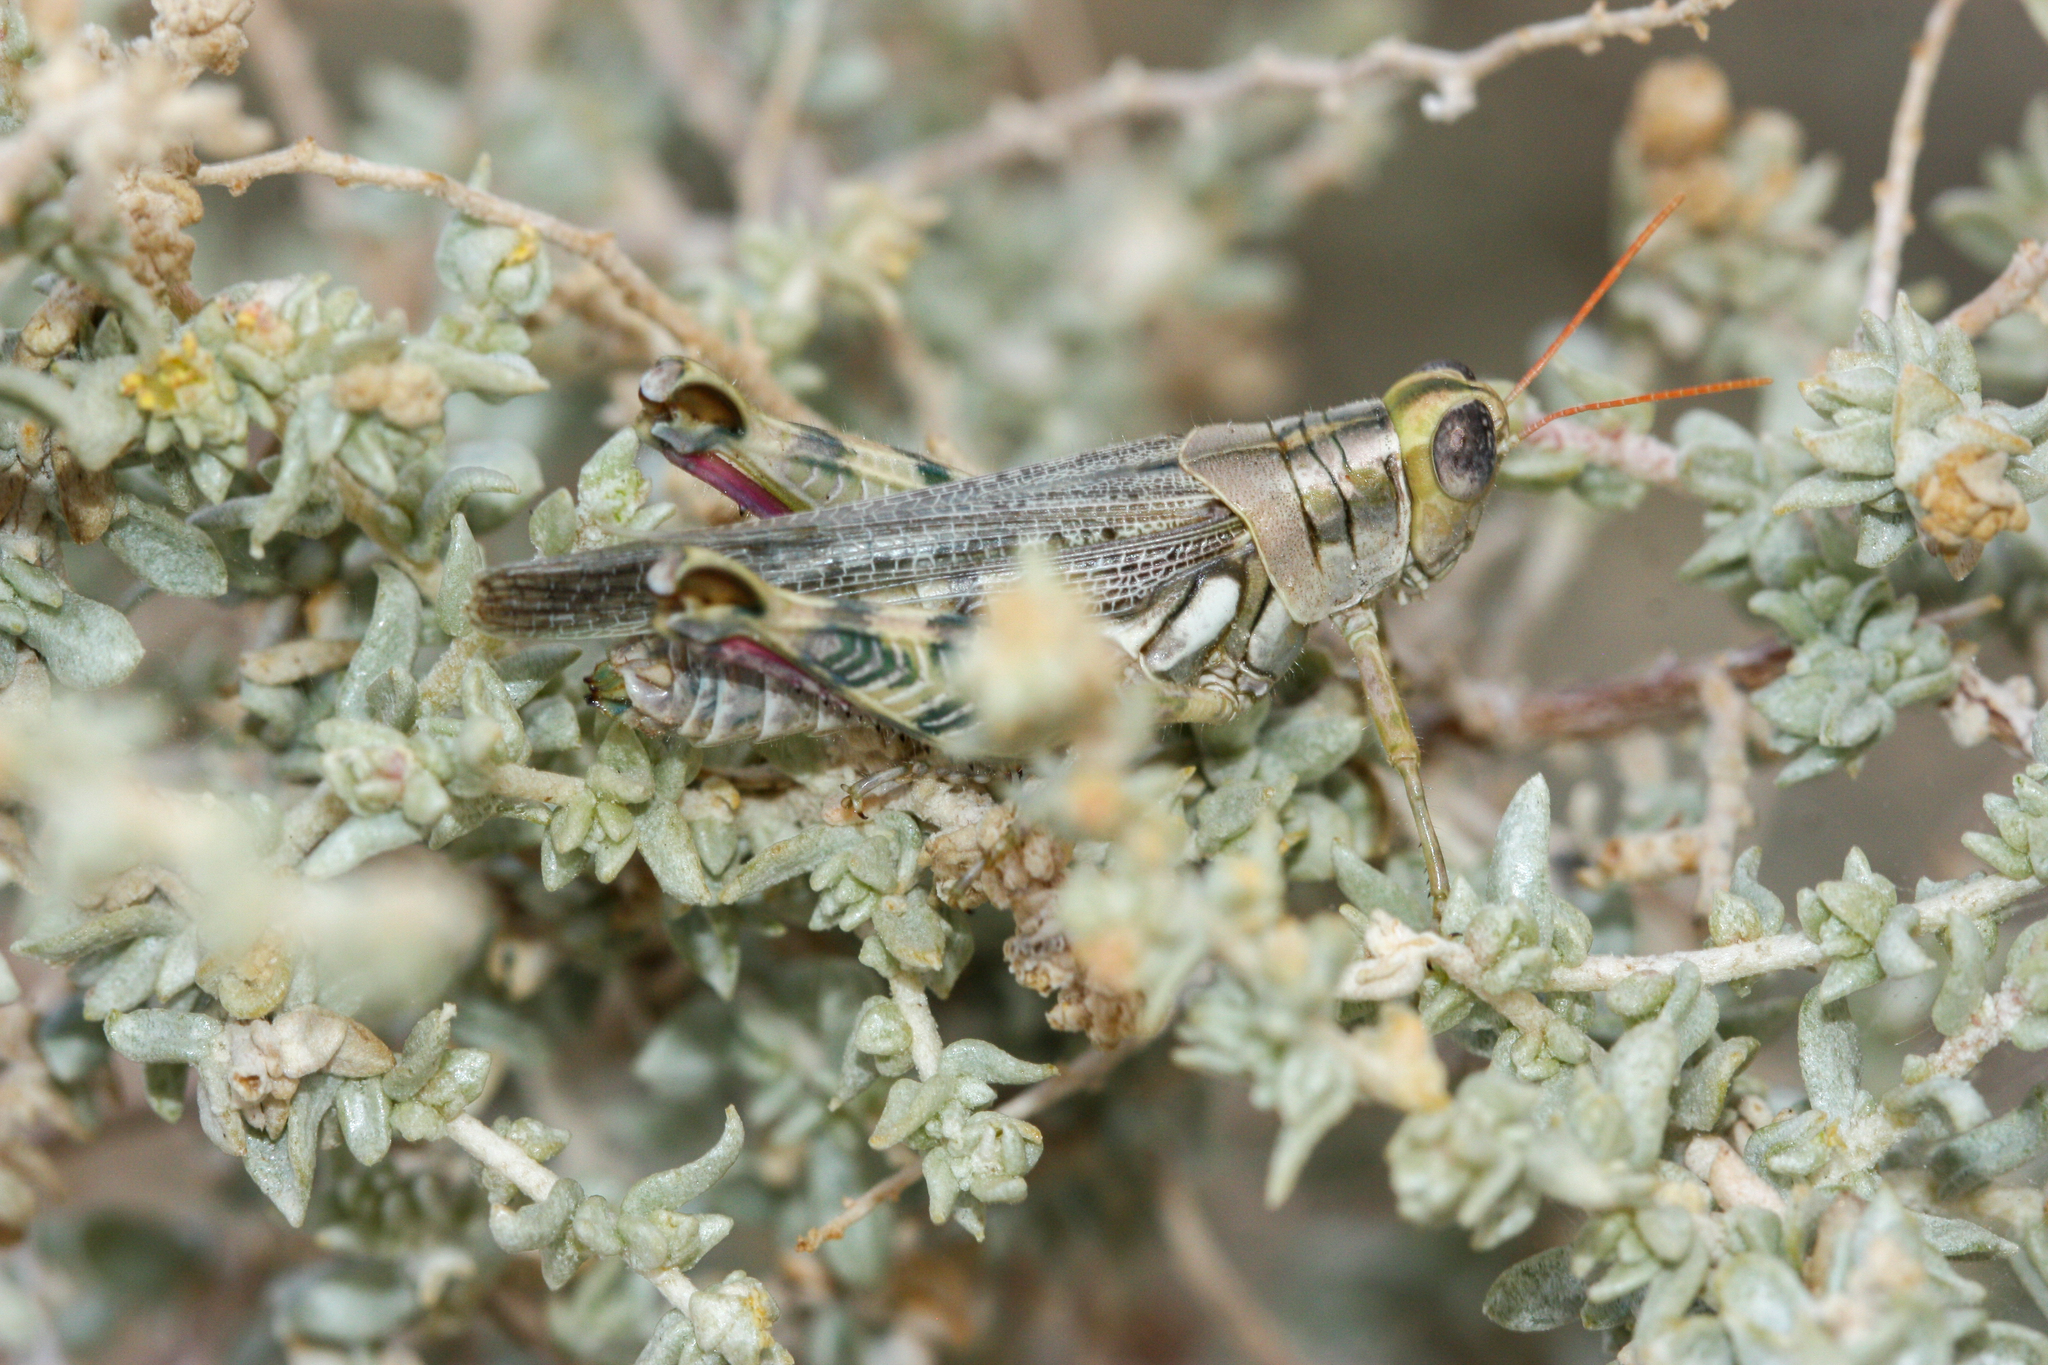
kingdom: Animalia
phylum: Arthropoda
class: Insecta
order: Orthoptera
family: Acrididae
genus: Aeoloplides
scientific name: Aeoloplides tenuipennis
